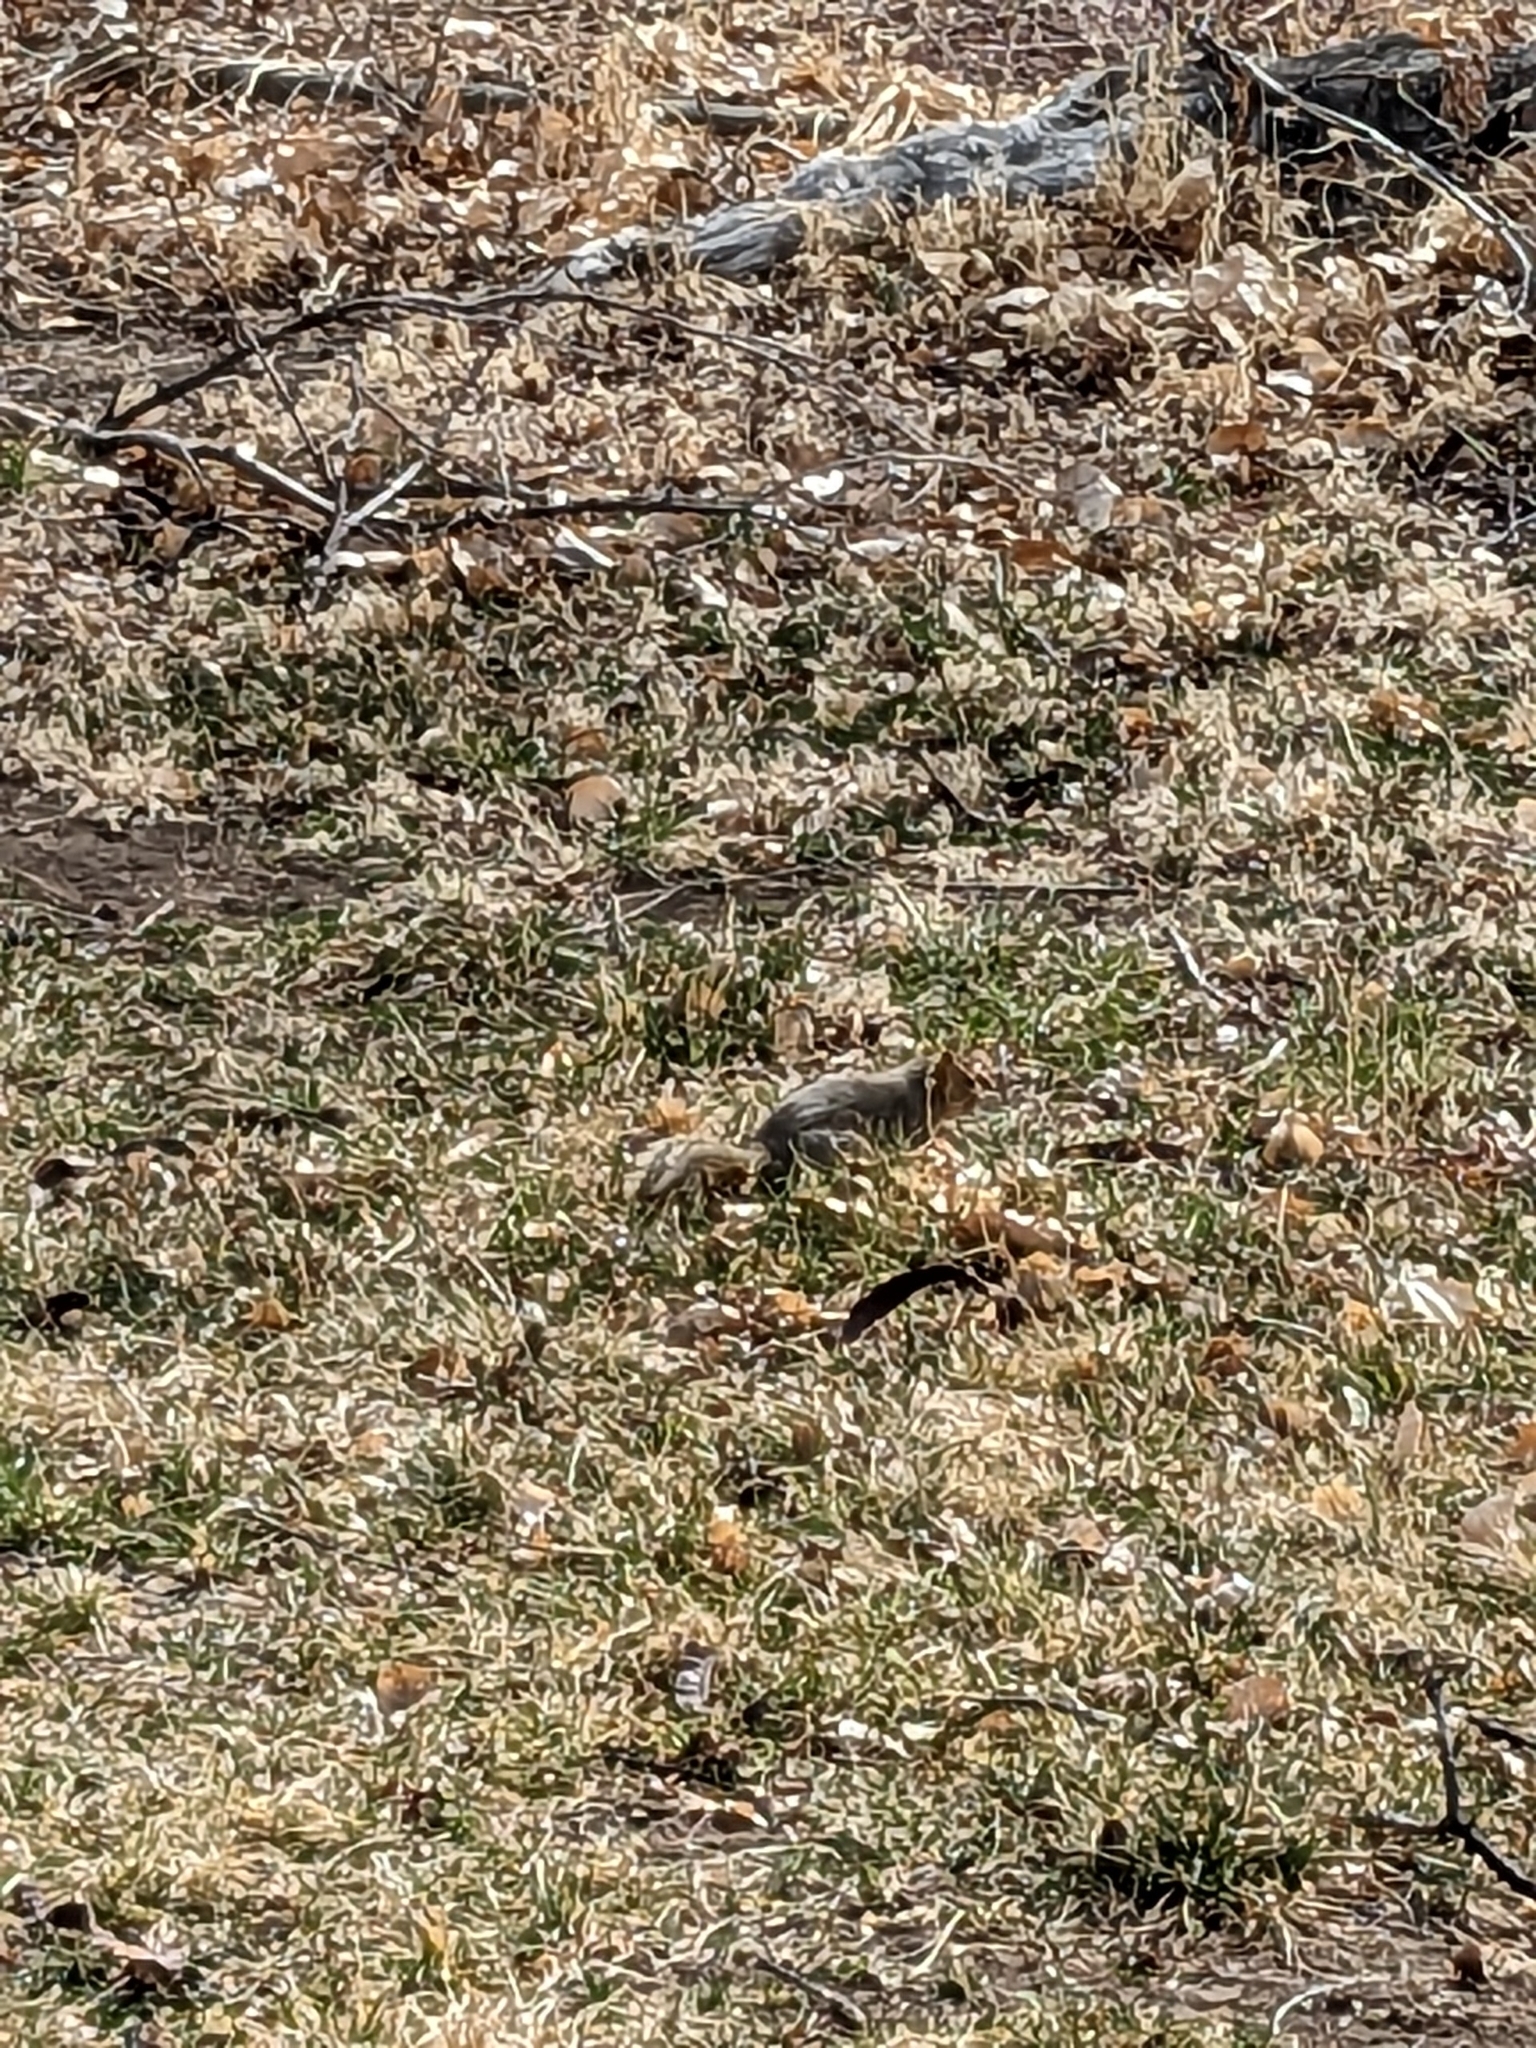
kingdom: Animalia
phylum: Chordata
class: Mammalia
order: Rodentia
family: Sciuridae
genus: Sciurus
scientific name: Sciurus niger
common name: Fox squirrel
